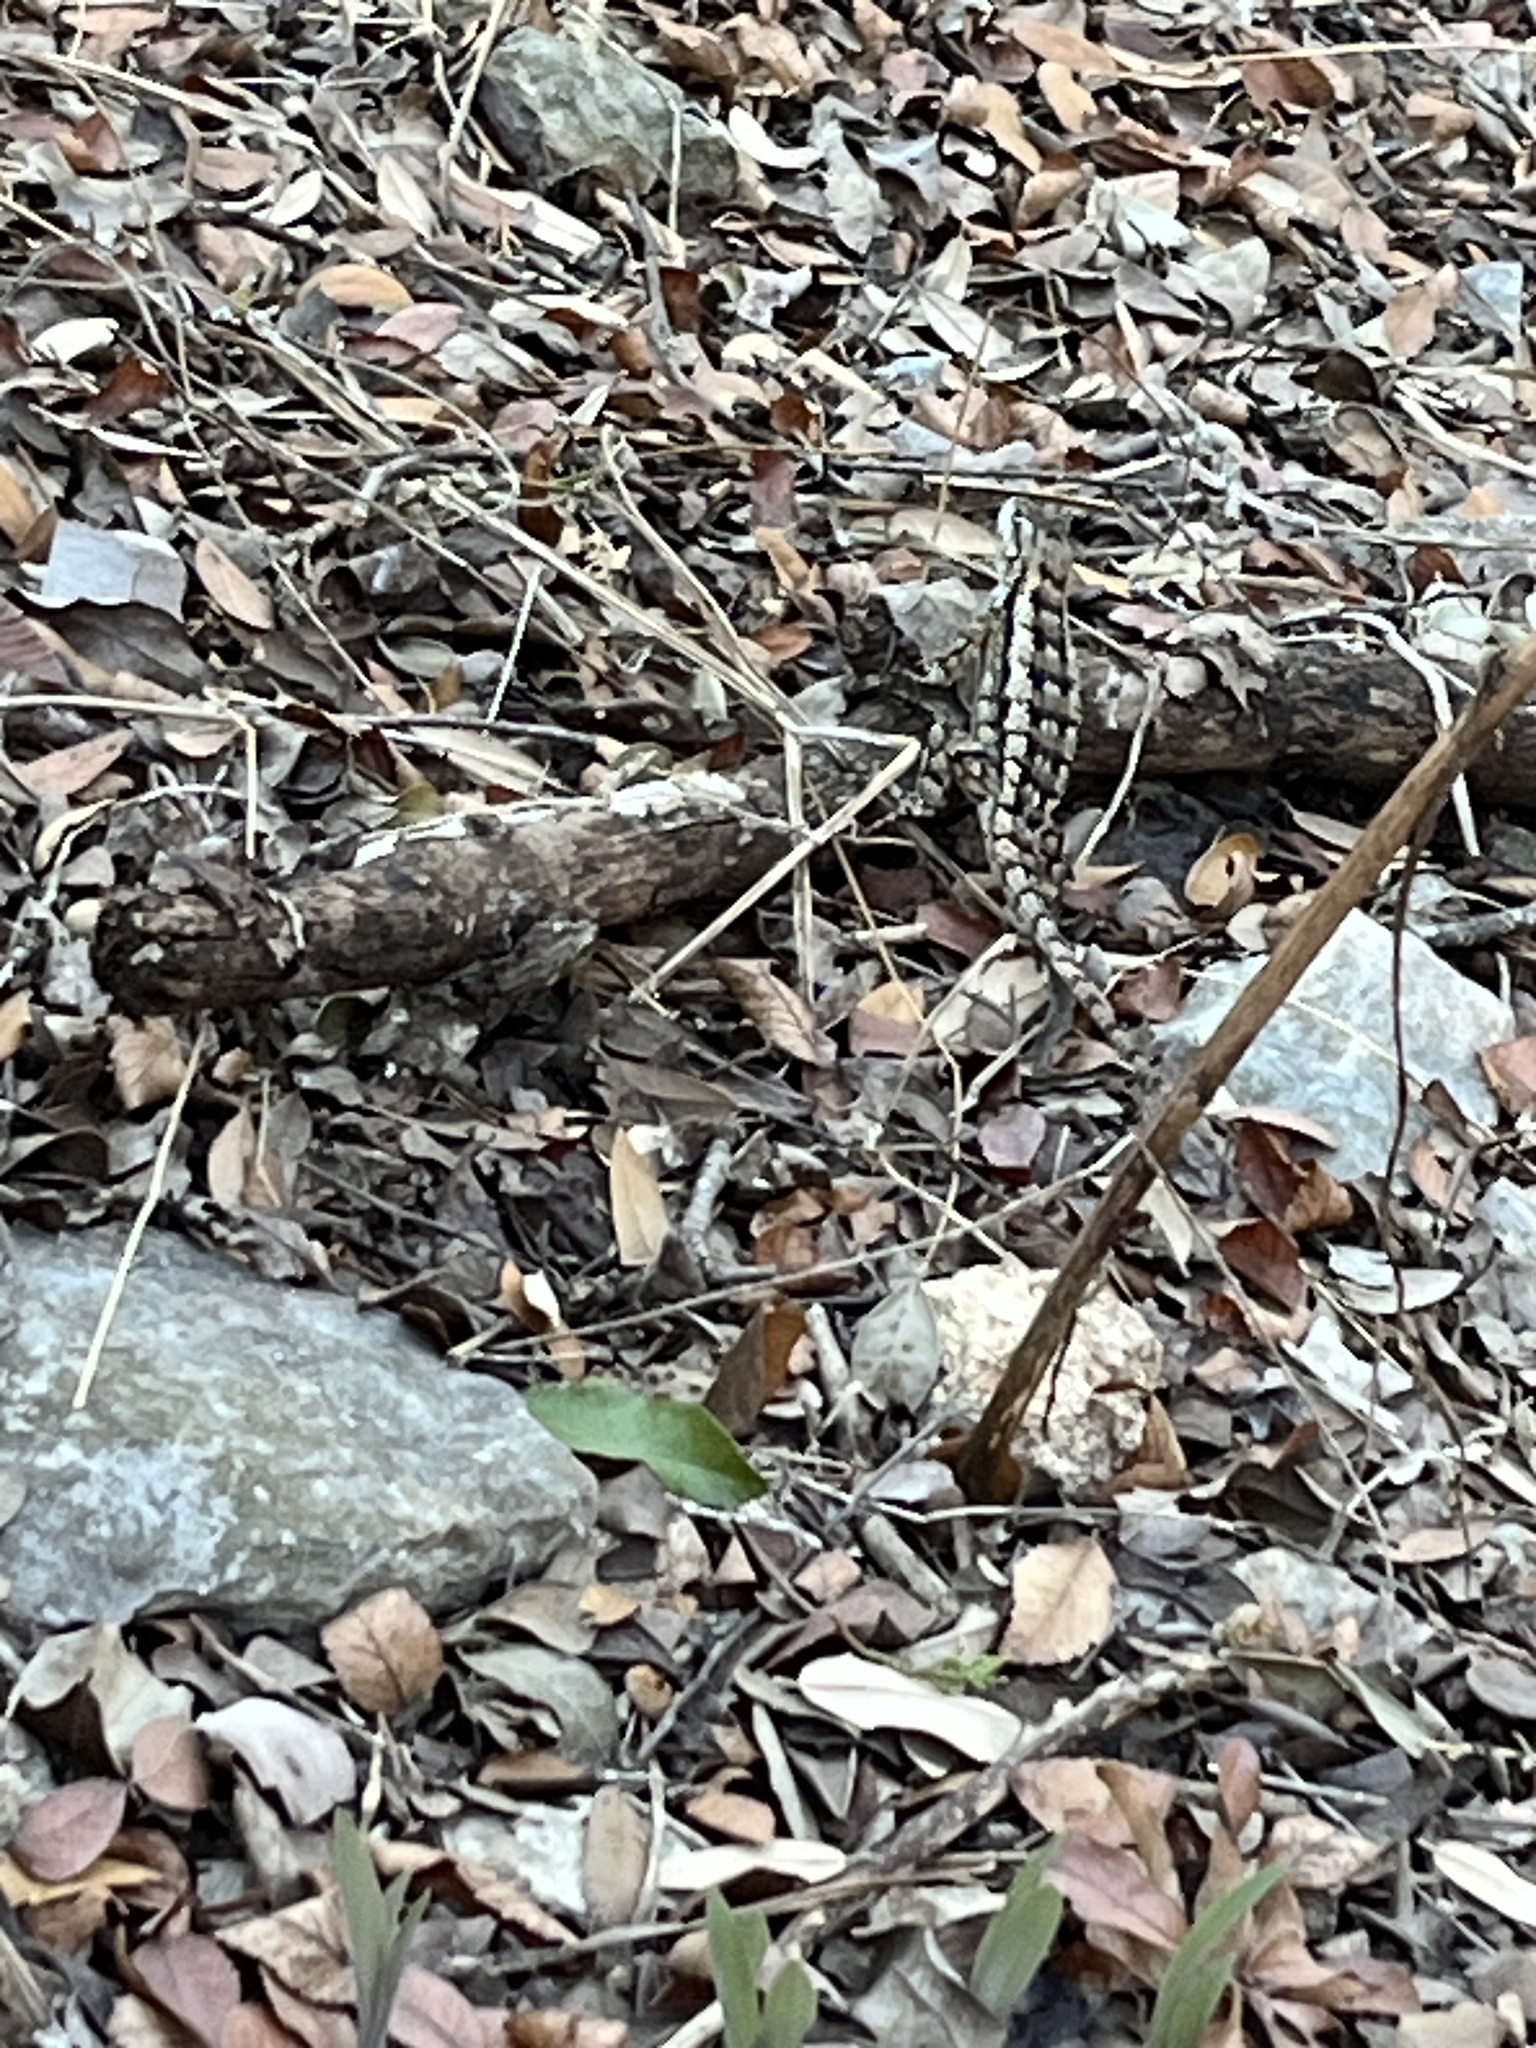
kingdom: Animalia
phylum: Chordata
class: Squamata
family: Phrynosomatidae
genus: Sceloporus
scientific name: Sceloporus olivaceus
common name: Texas spiny lizard
